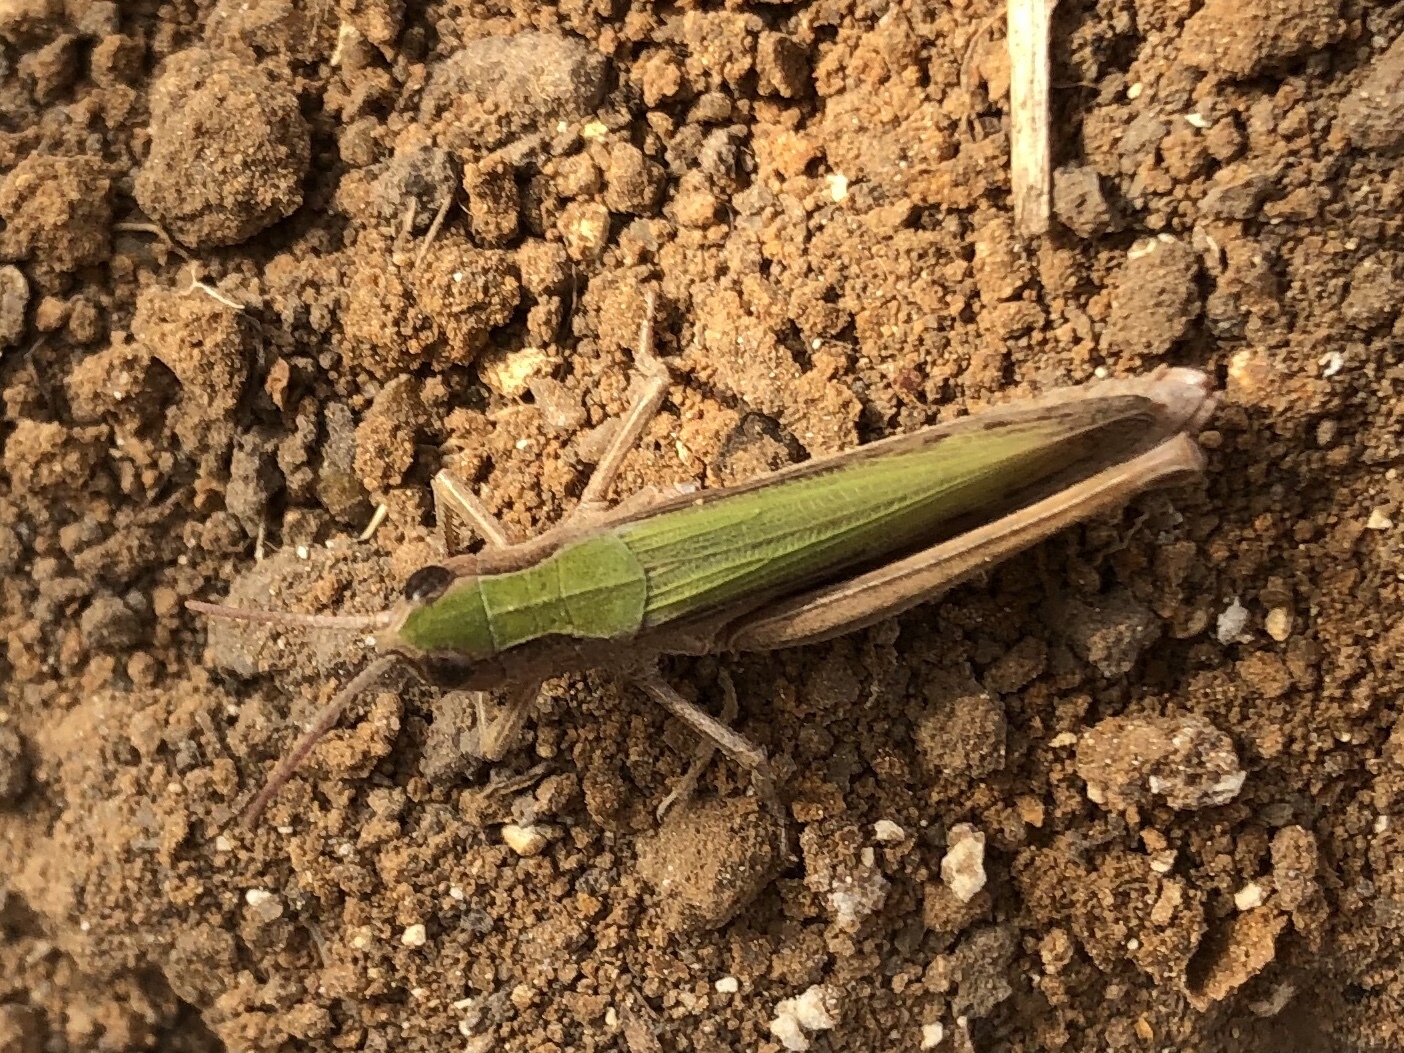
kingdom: Animalia
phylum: Arthropoda
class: Insecta
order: Orthoptera
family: Acrididae
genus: Chorthippus
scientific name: Chorthippus dorsatus
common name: Steppe grasshopper
